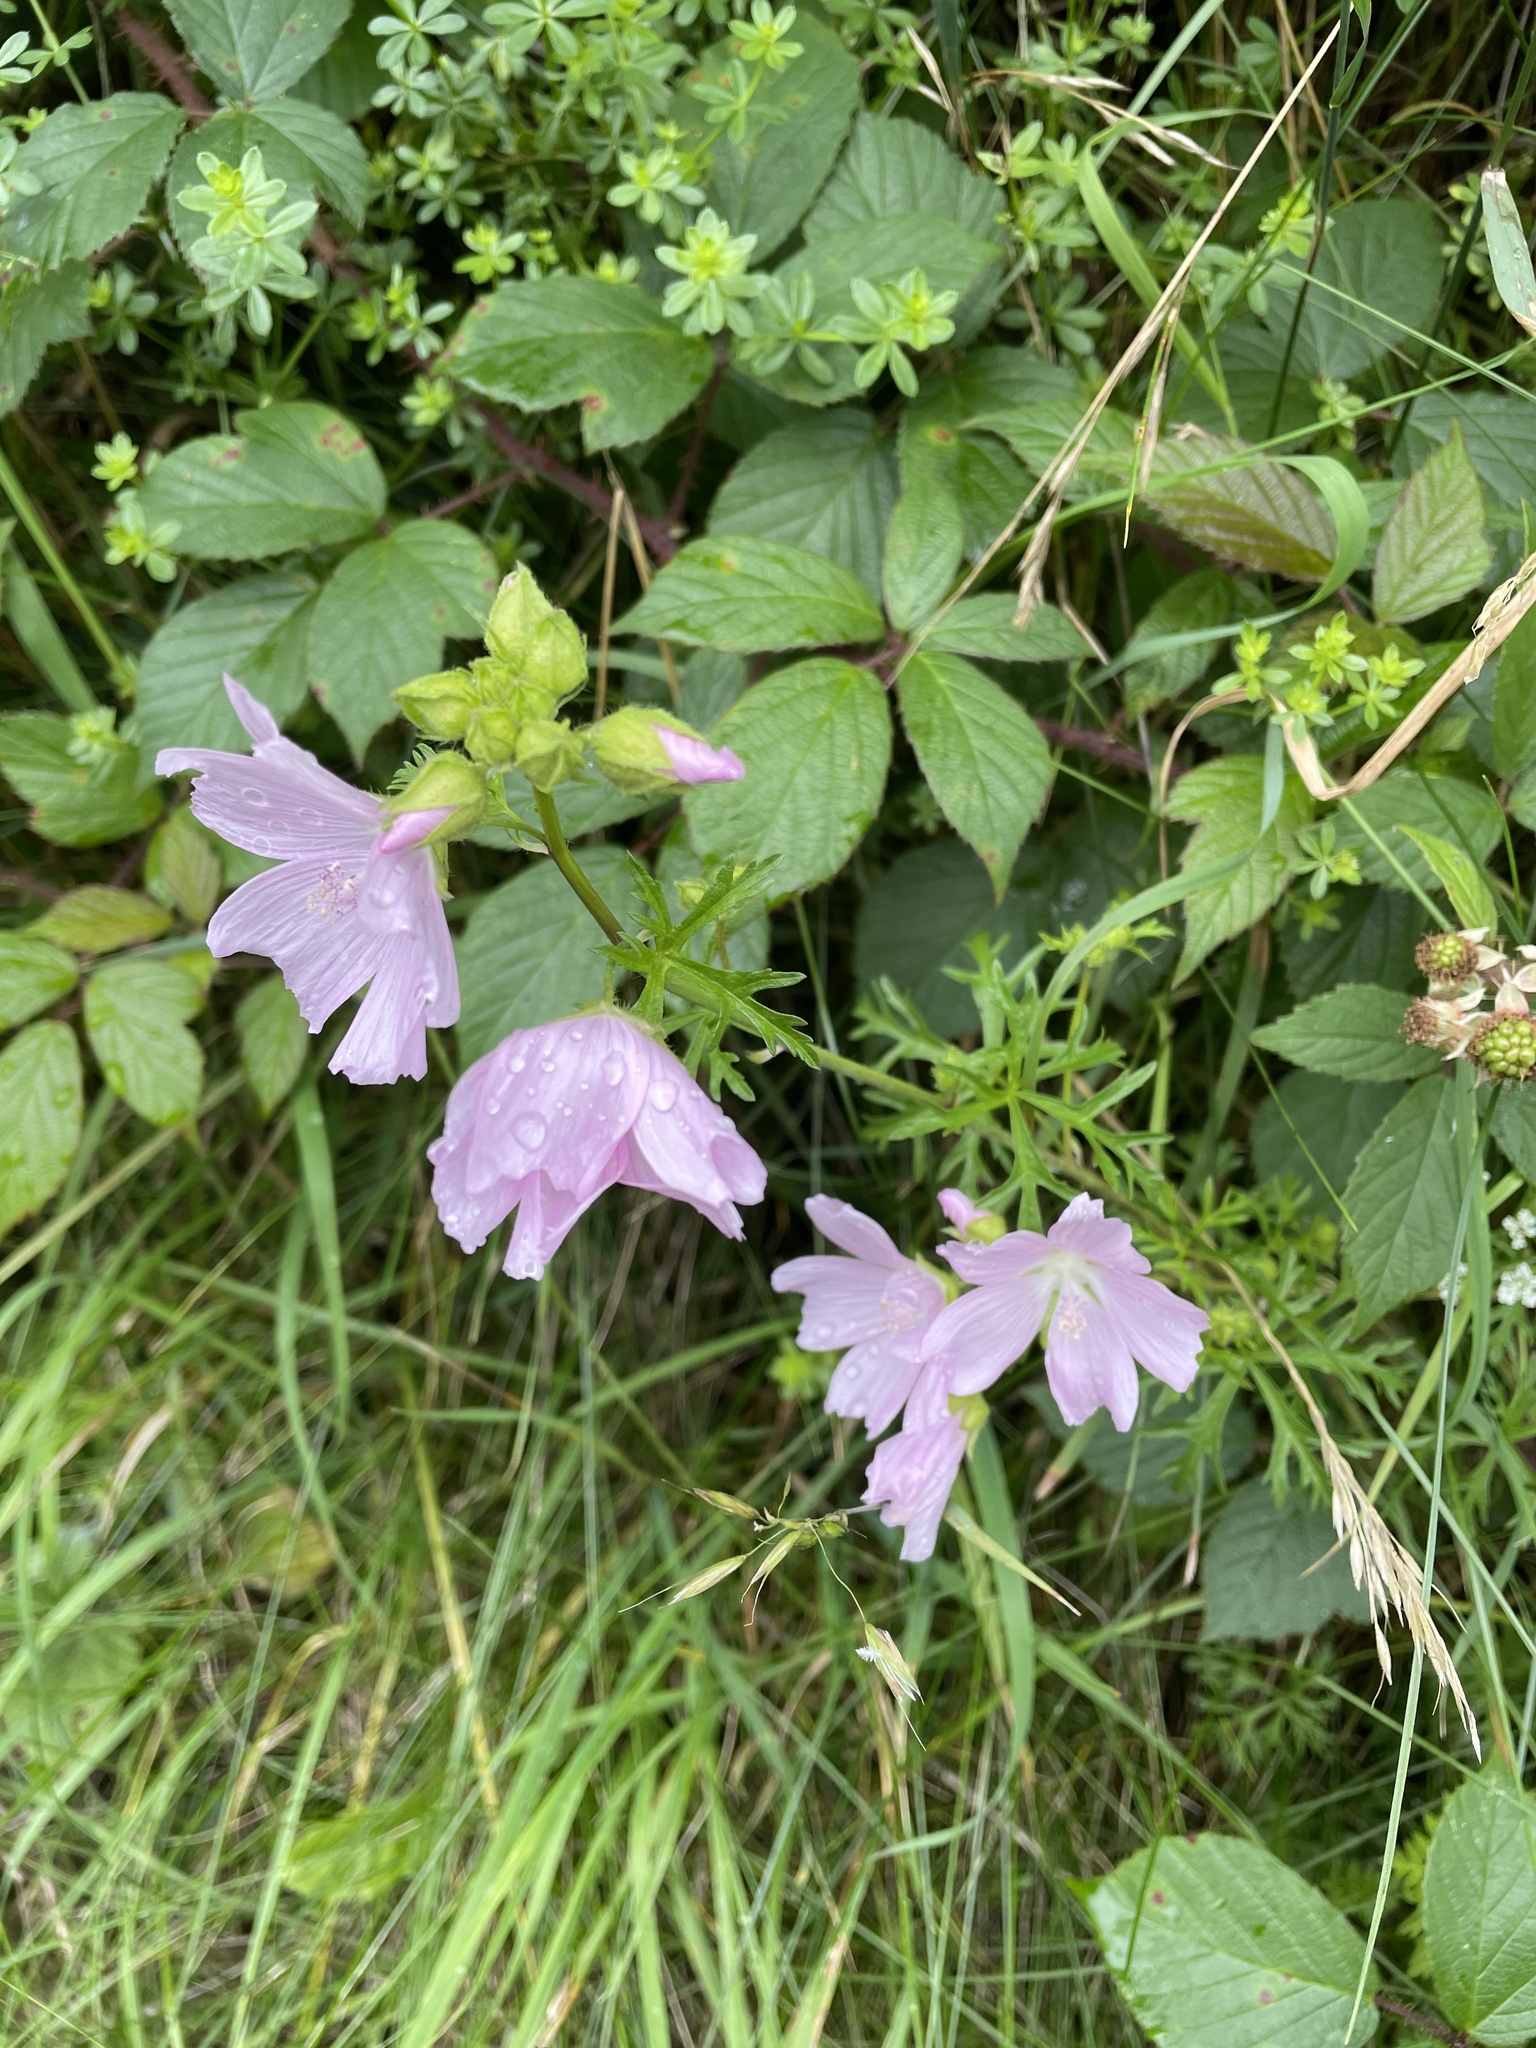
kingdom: Plantae
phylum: Tracheophyta
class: Magnoliopsida
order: Malvales
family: Malvaceae
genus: Malva
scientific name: Malva moschata
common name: Musk mallow
